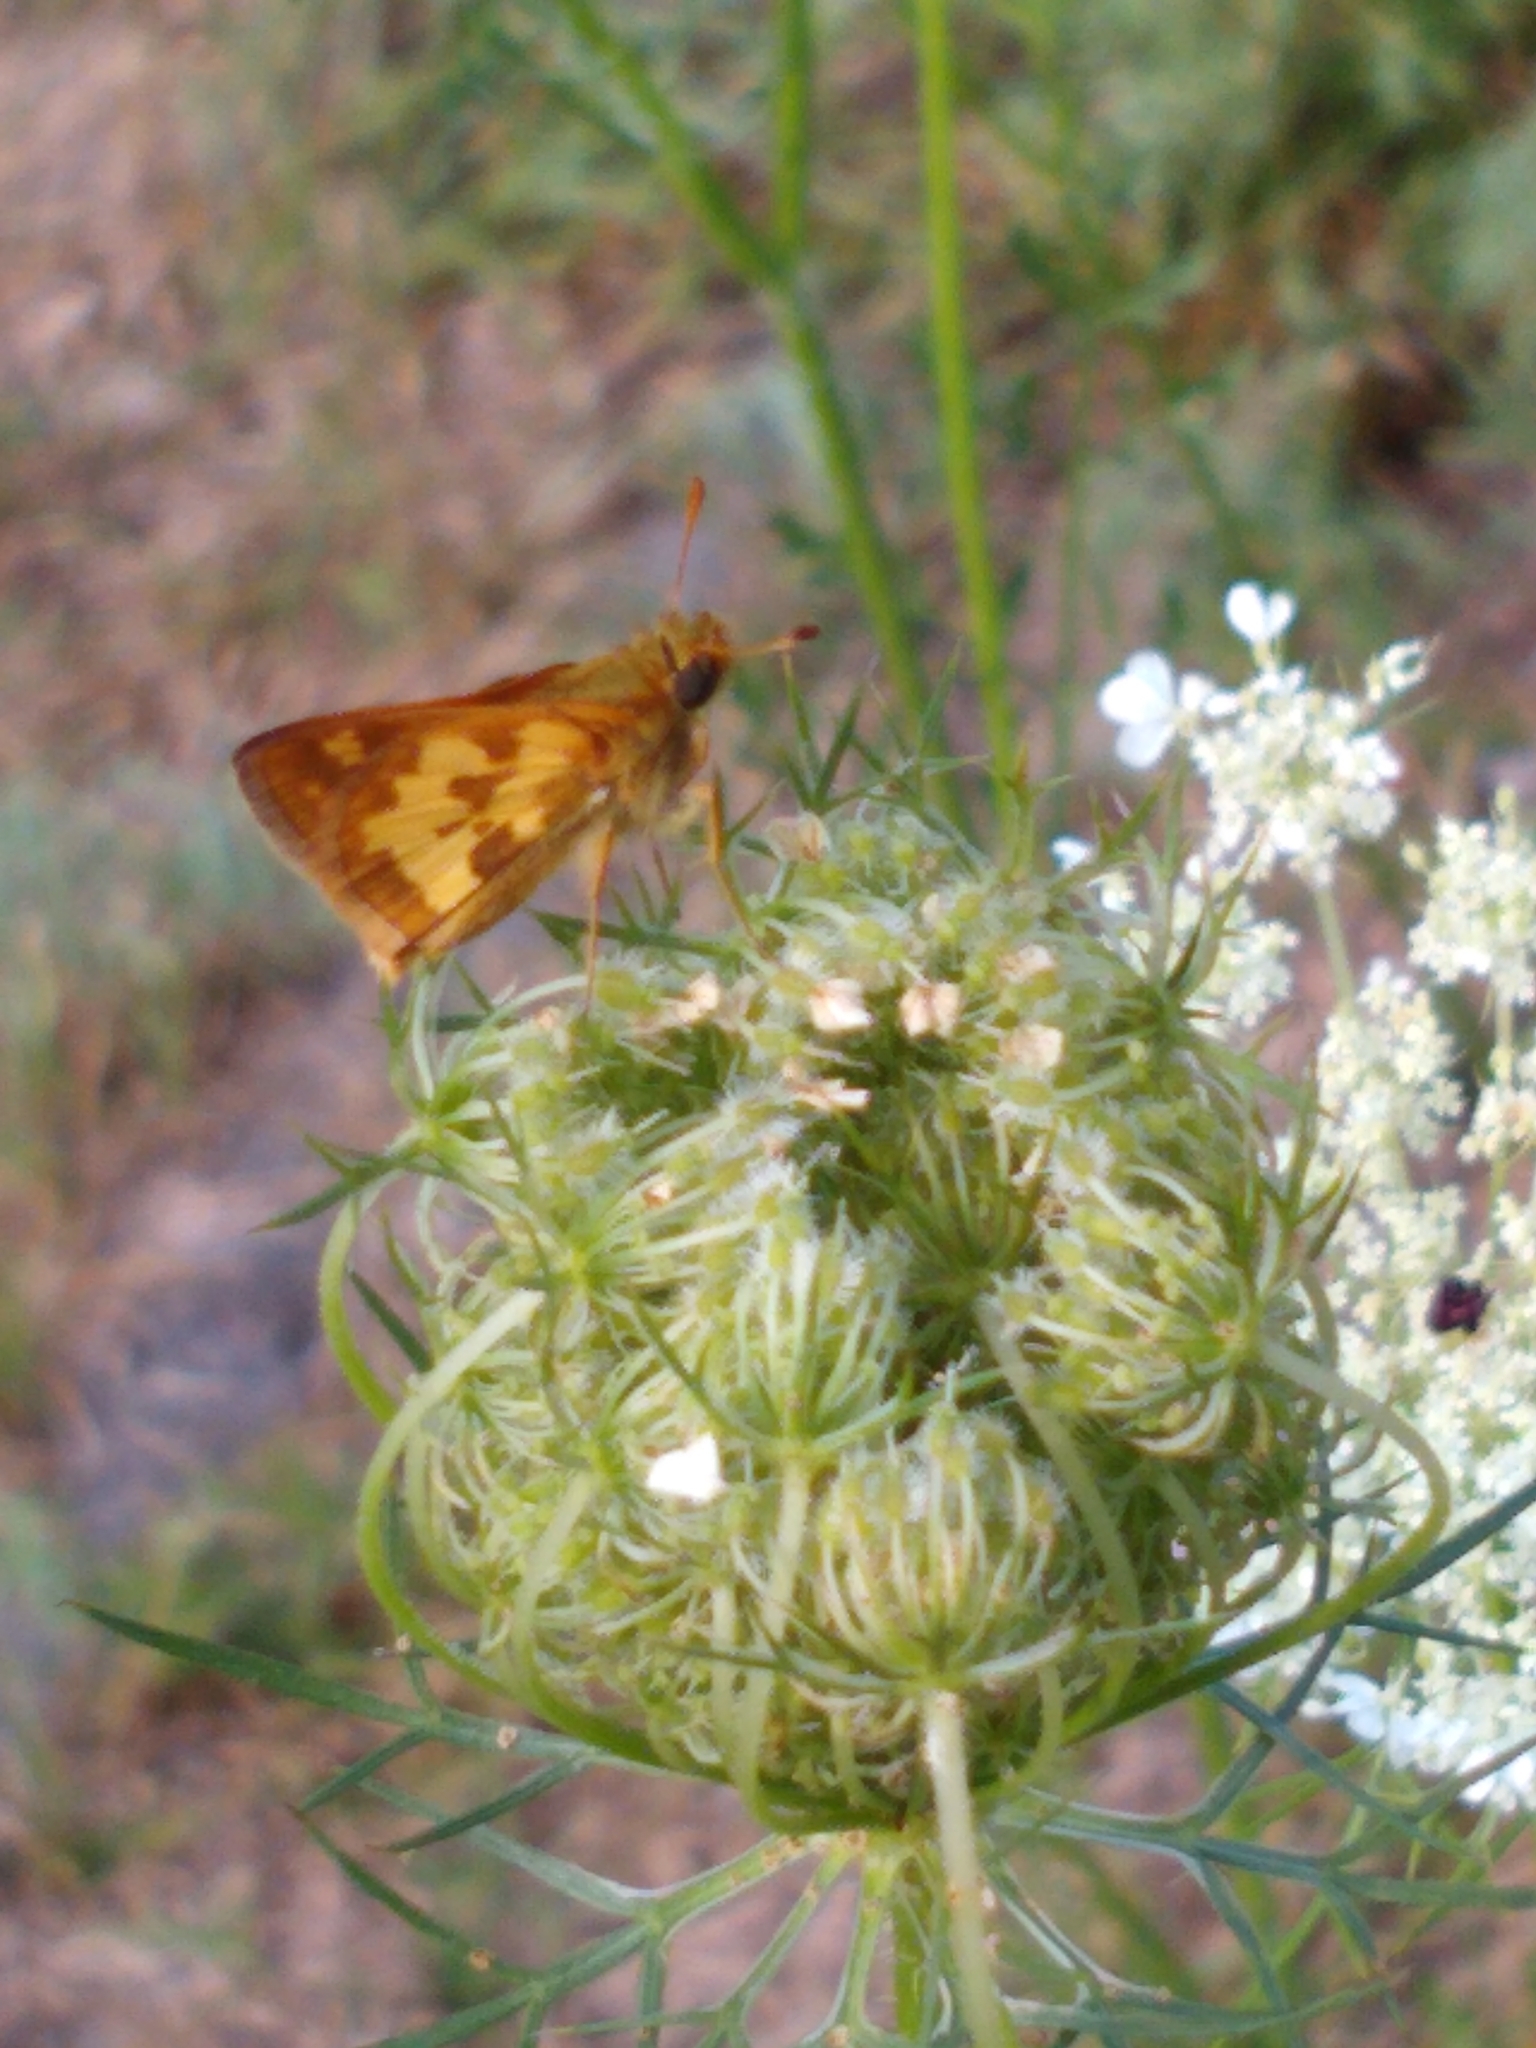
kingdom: Animalia
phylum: Arthropoda
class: Insecta
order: Lepidoptera
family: Hesperiidae
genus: Polites
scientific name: Polites coras
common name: Peck's skipper
